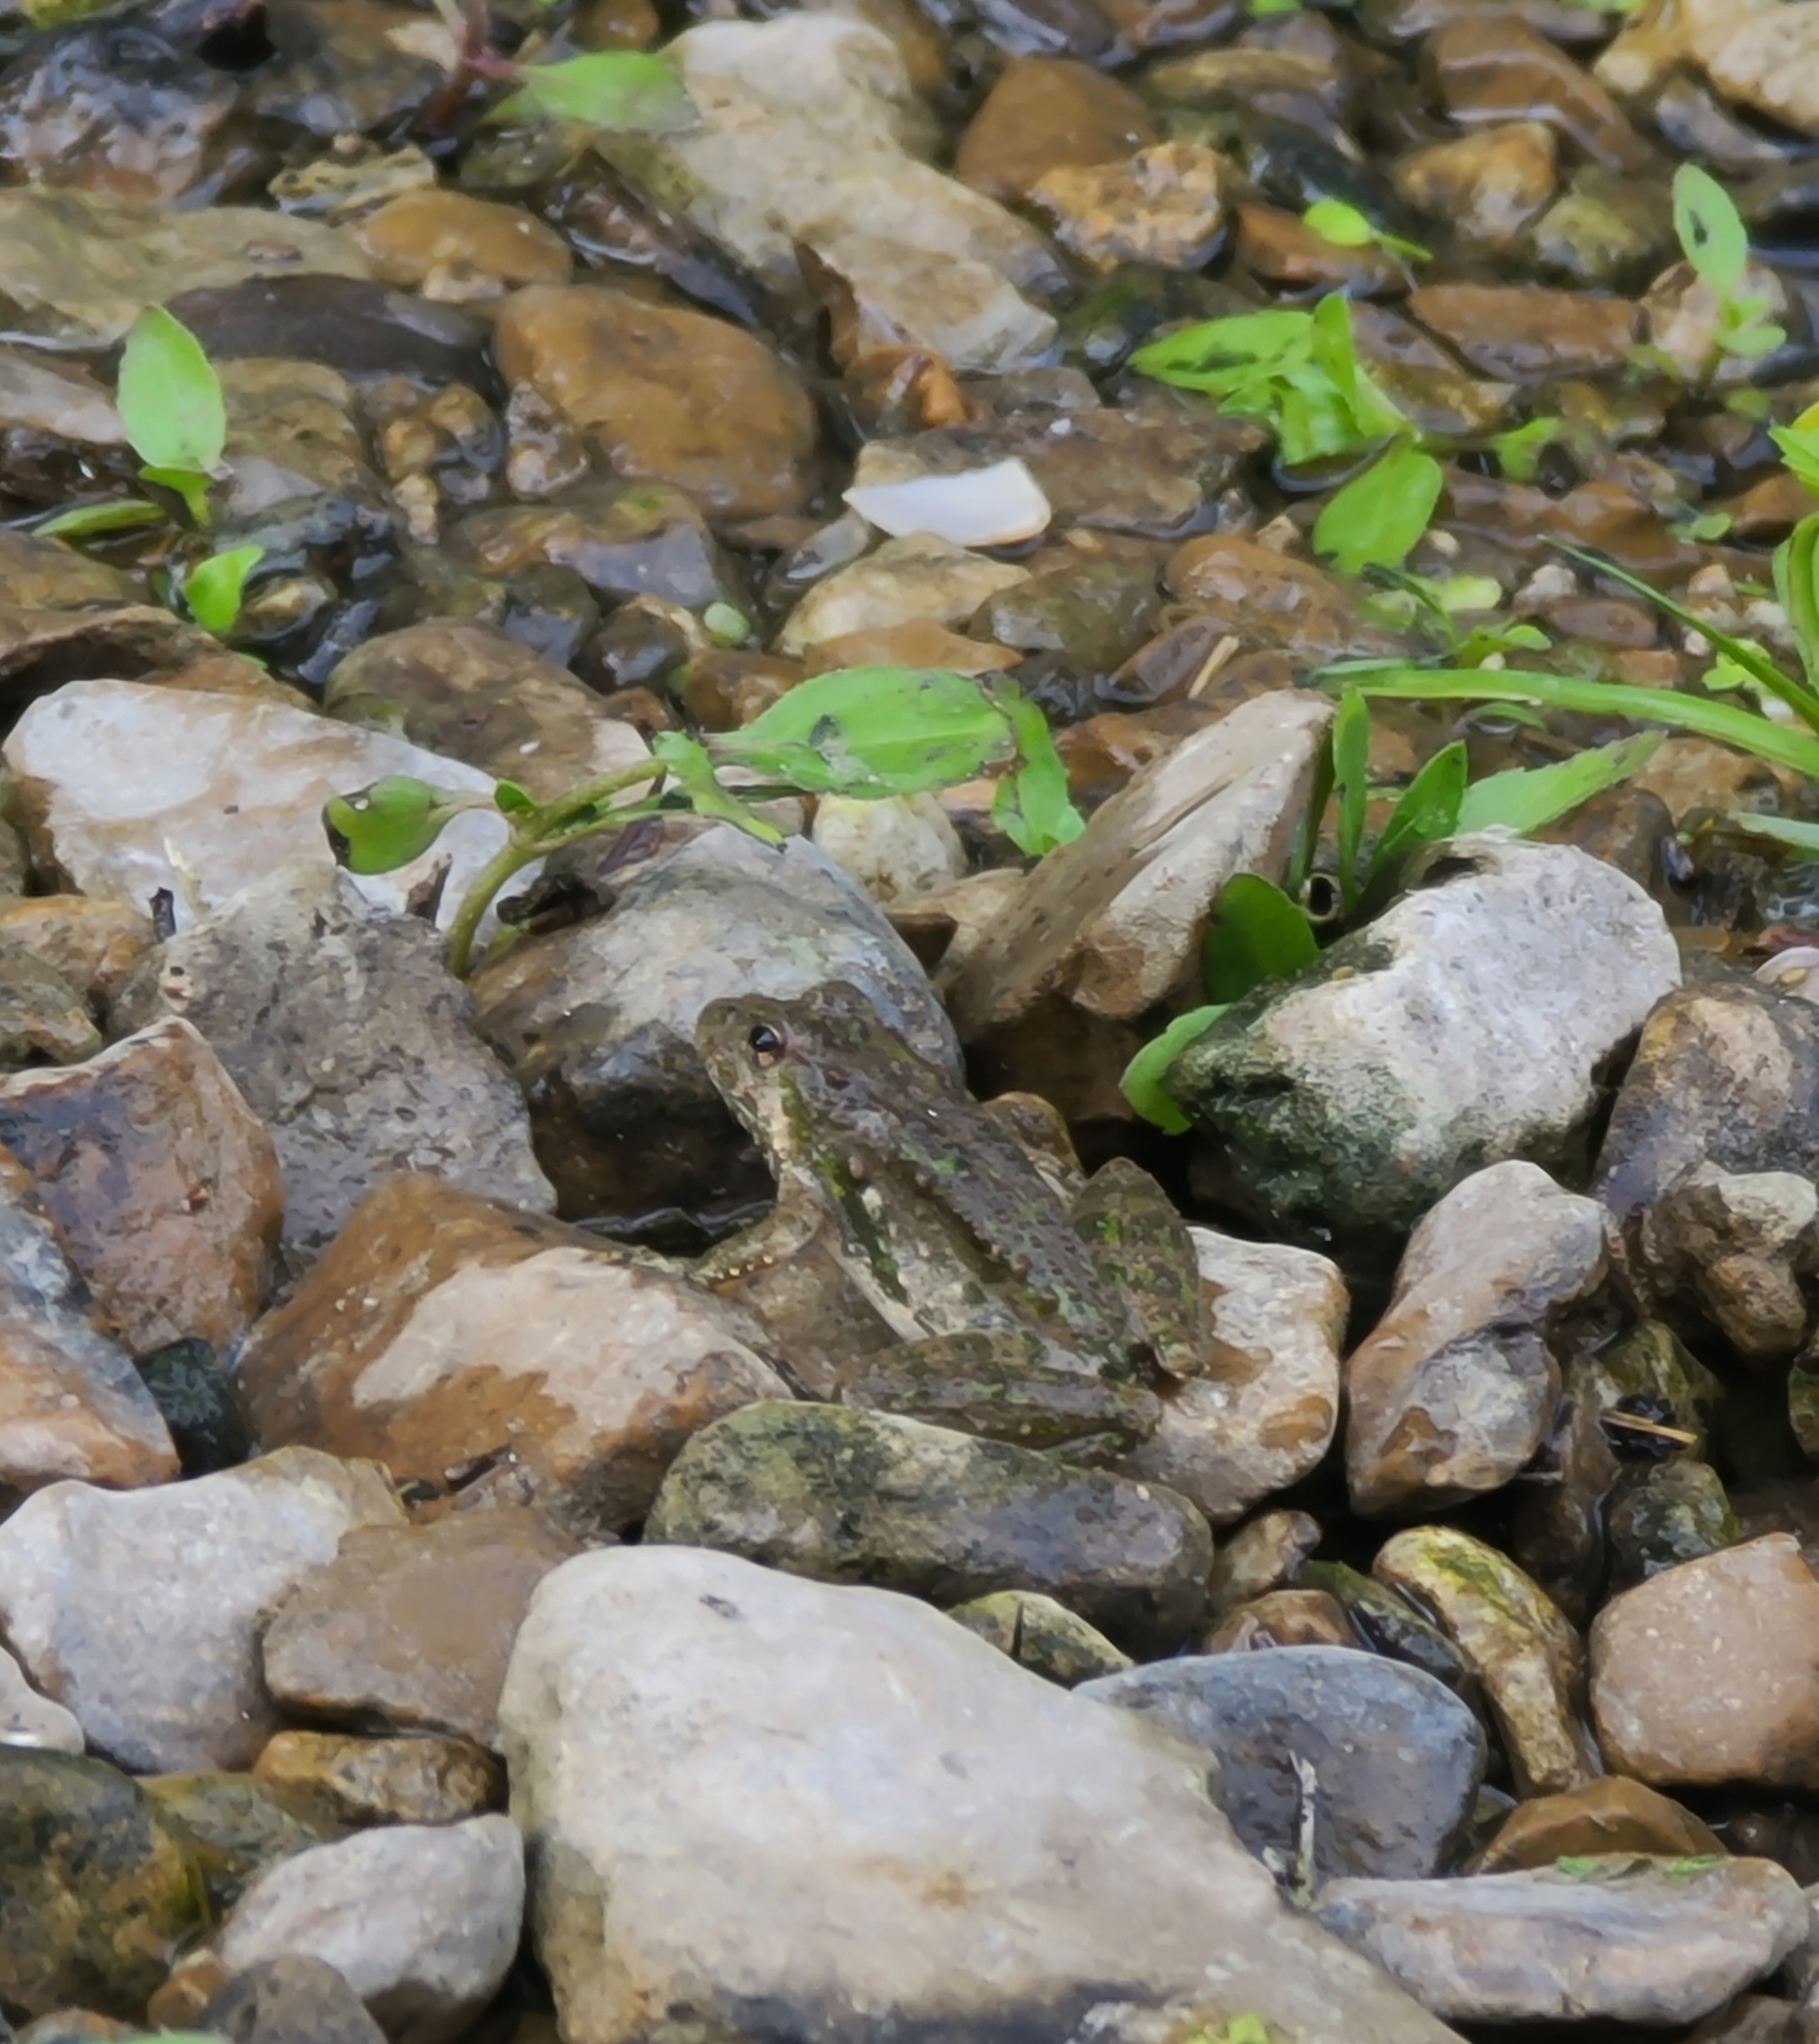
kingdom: Animalia
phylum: Chordata
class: Amphibia
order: Anura
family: Hylidae
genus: Acris
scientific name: Acris blanchardi
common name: Blanchard's cricket frog
